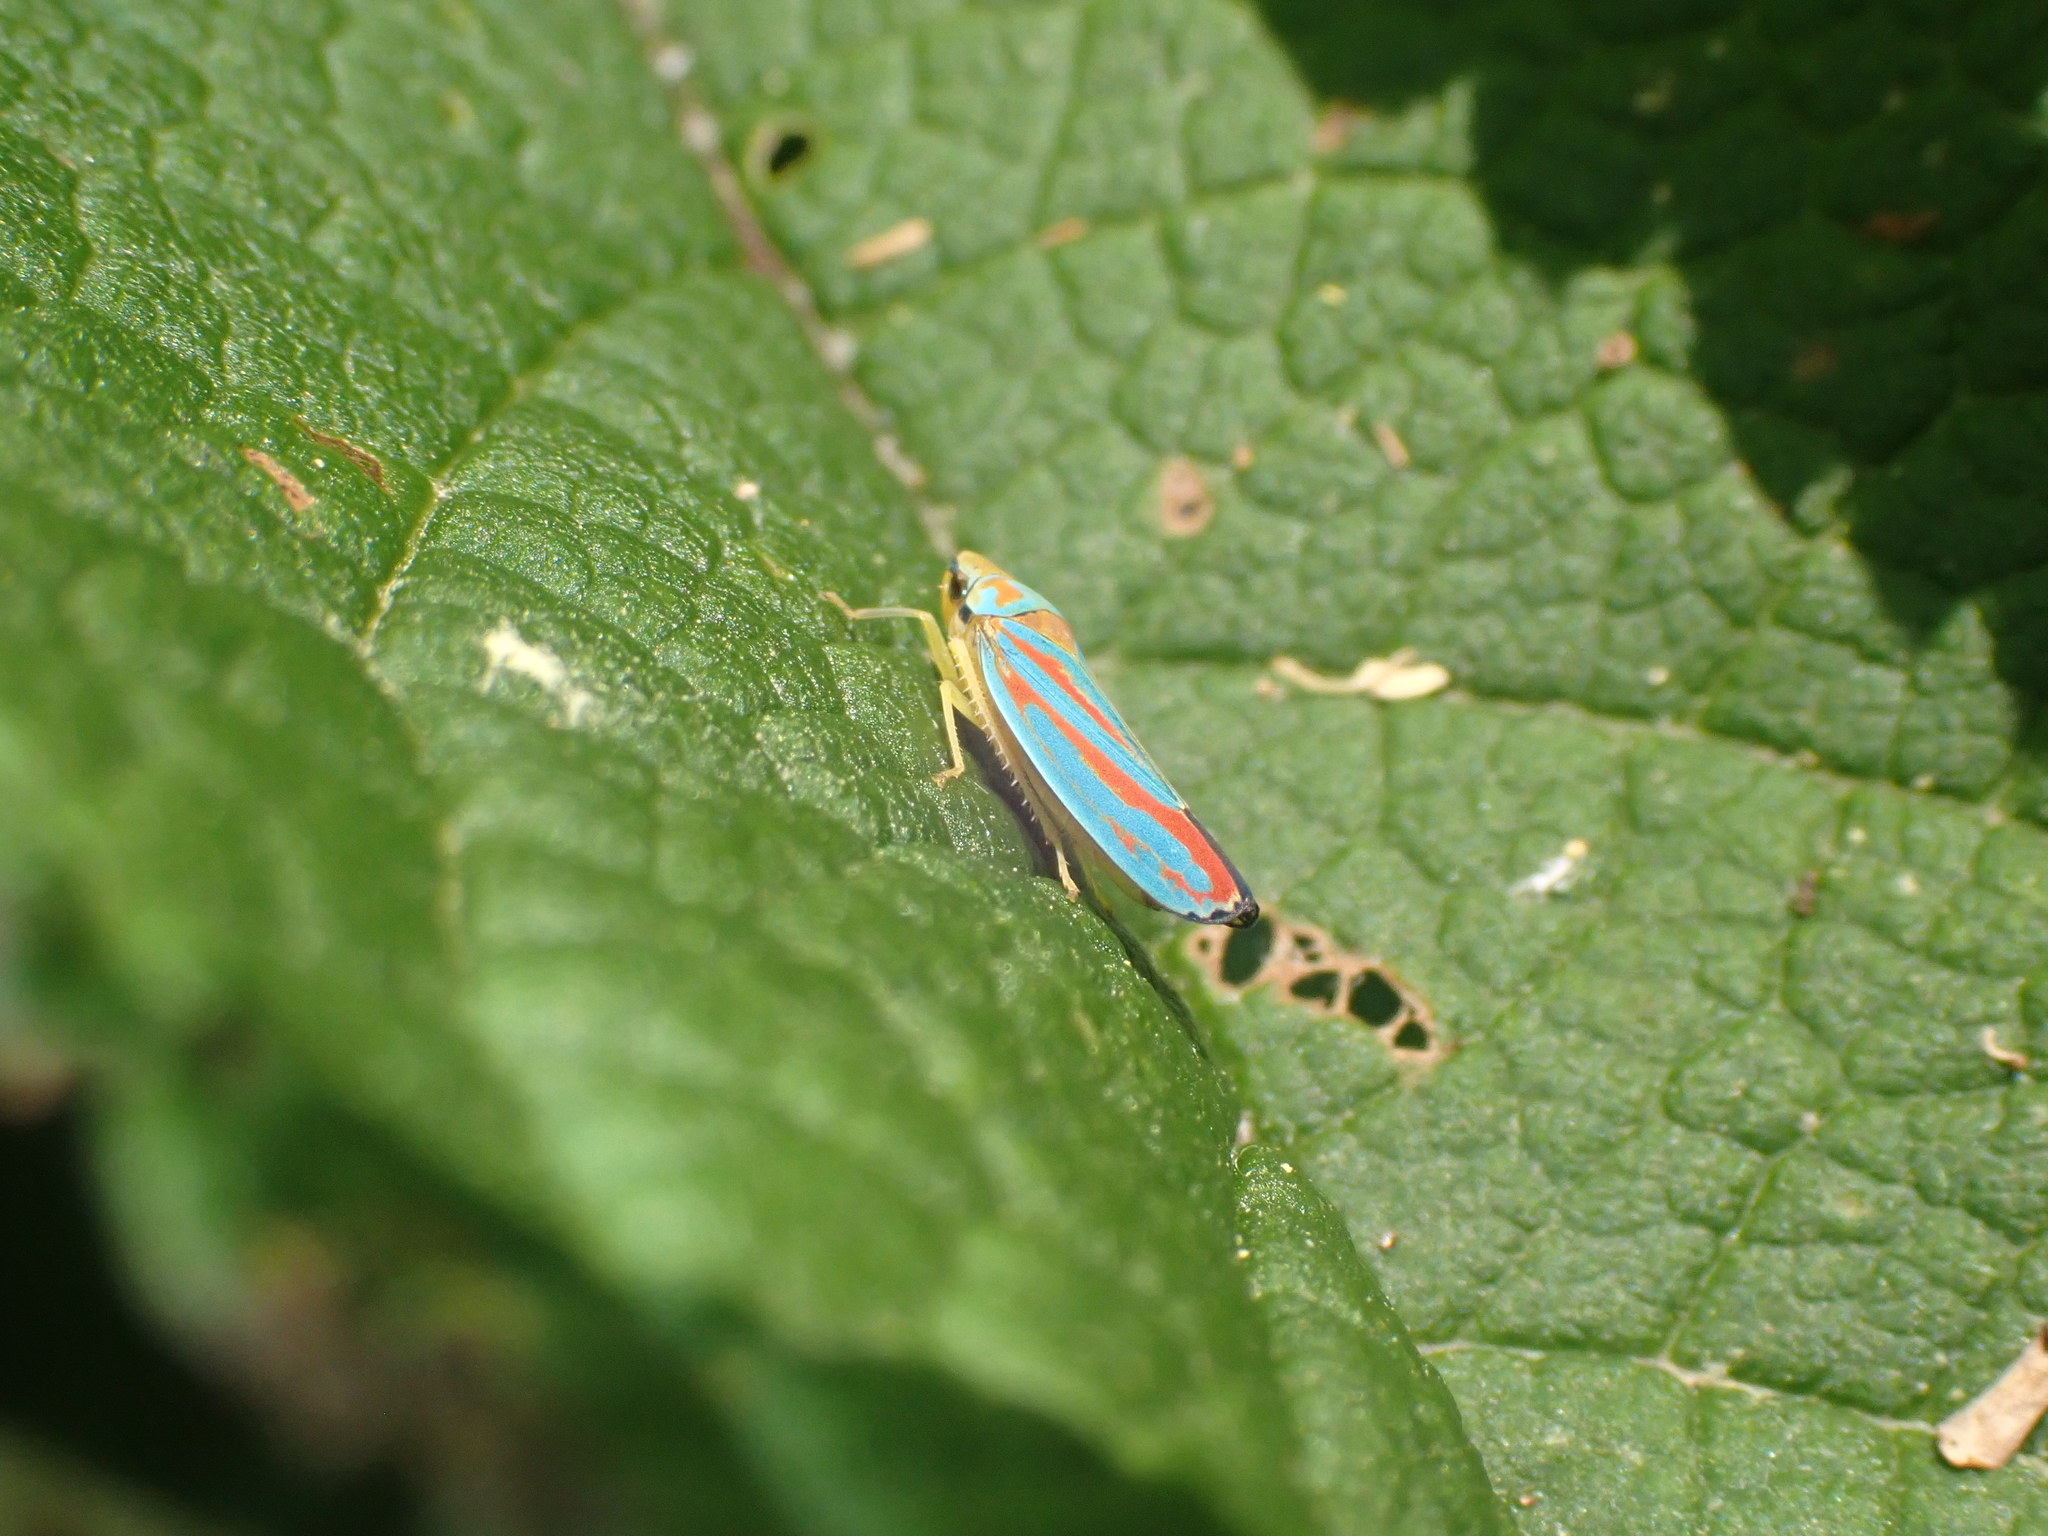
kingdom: Animalia
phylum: Arthropoda
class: Insecta
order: Hemiptera
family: Cicadellidae
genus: Graphocephala
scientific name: Graphocephala coccinea
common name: Candy-striped leafhopper
